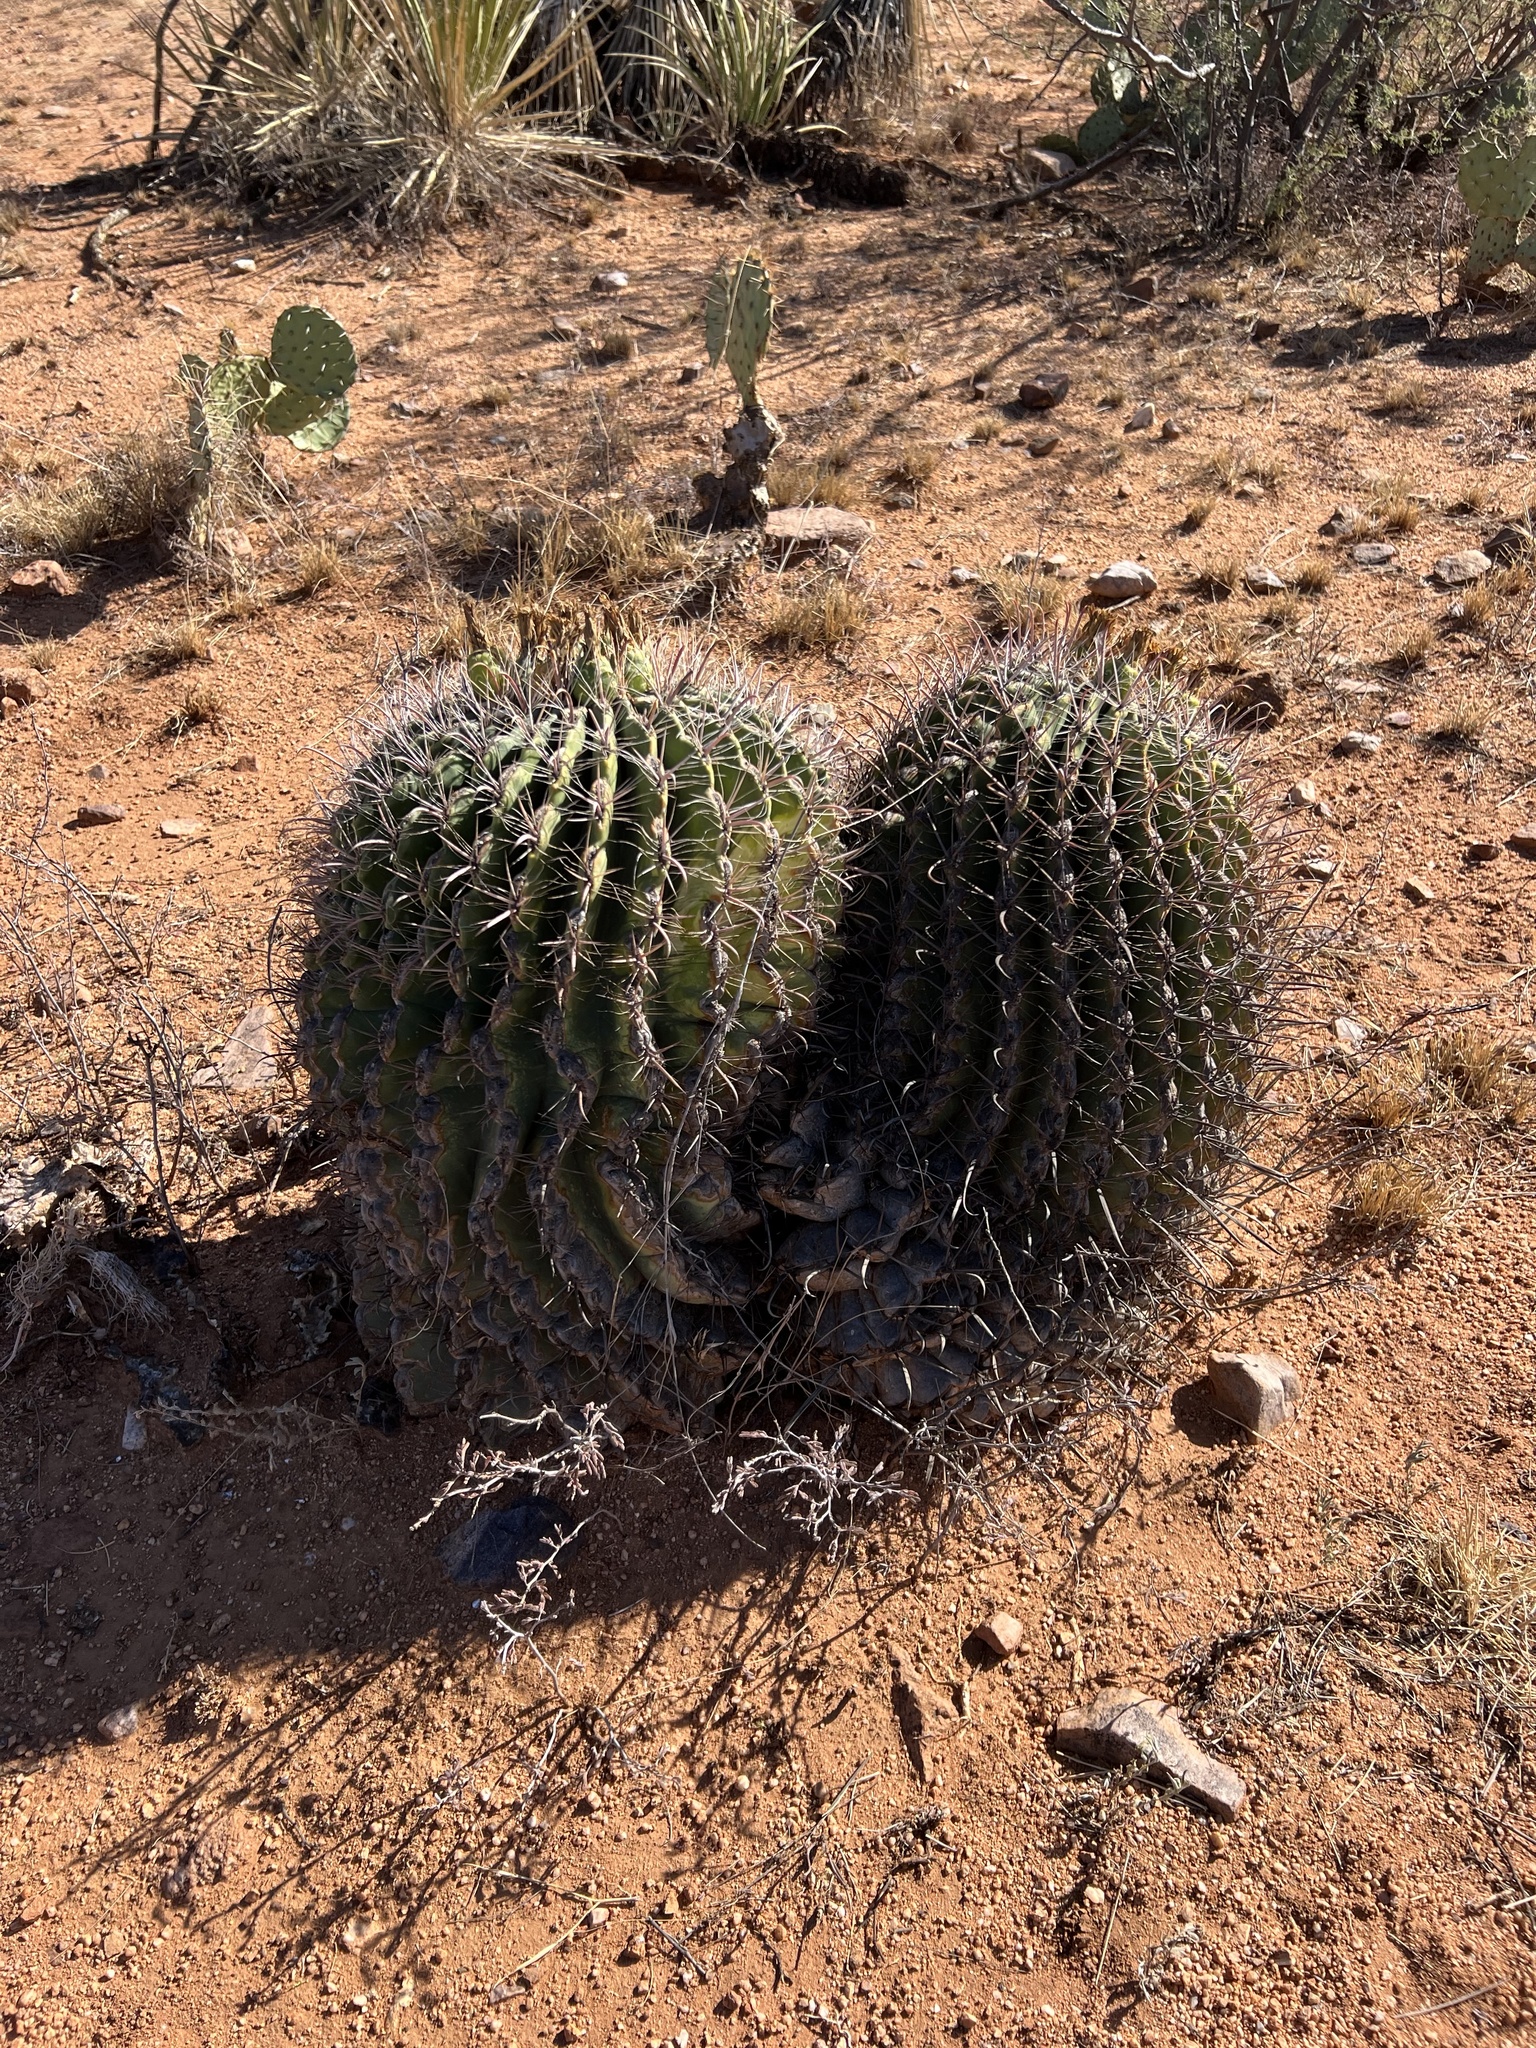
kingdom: Plantae
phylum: Tracheophyta
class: Magnoliopsida
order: Caryophyllales
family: Cactaceae
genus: Ferocactus
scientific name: Ferocactus wislizeni
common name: Candy barrel cactus
